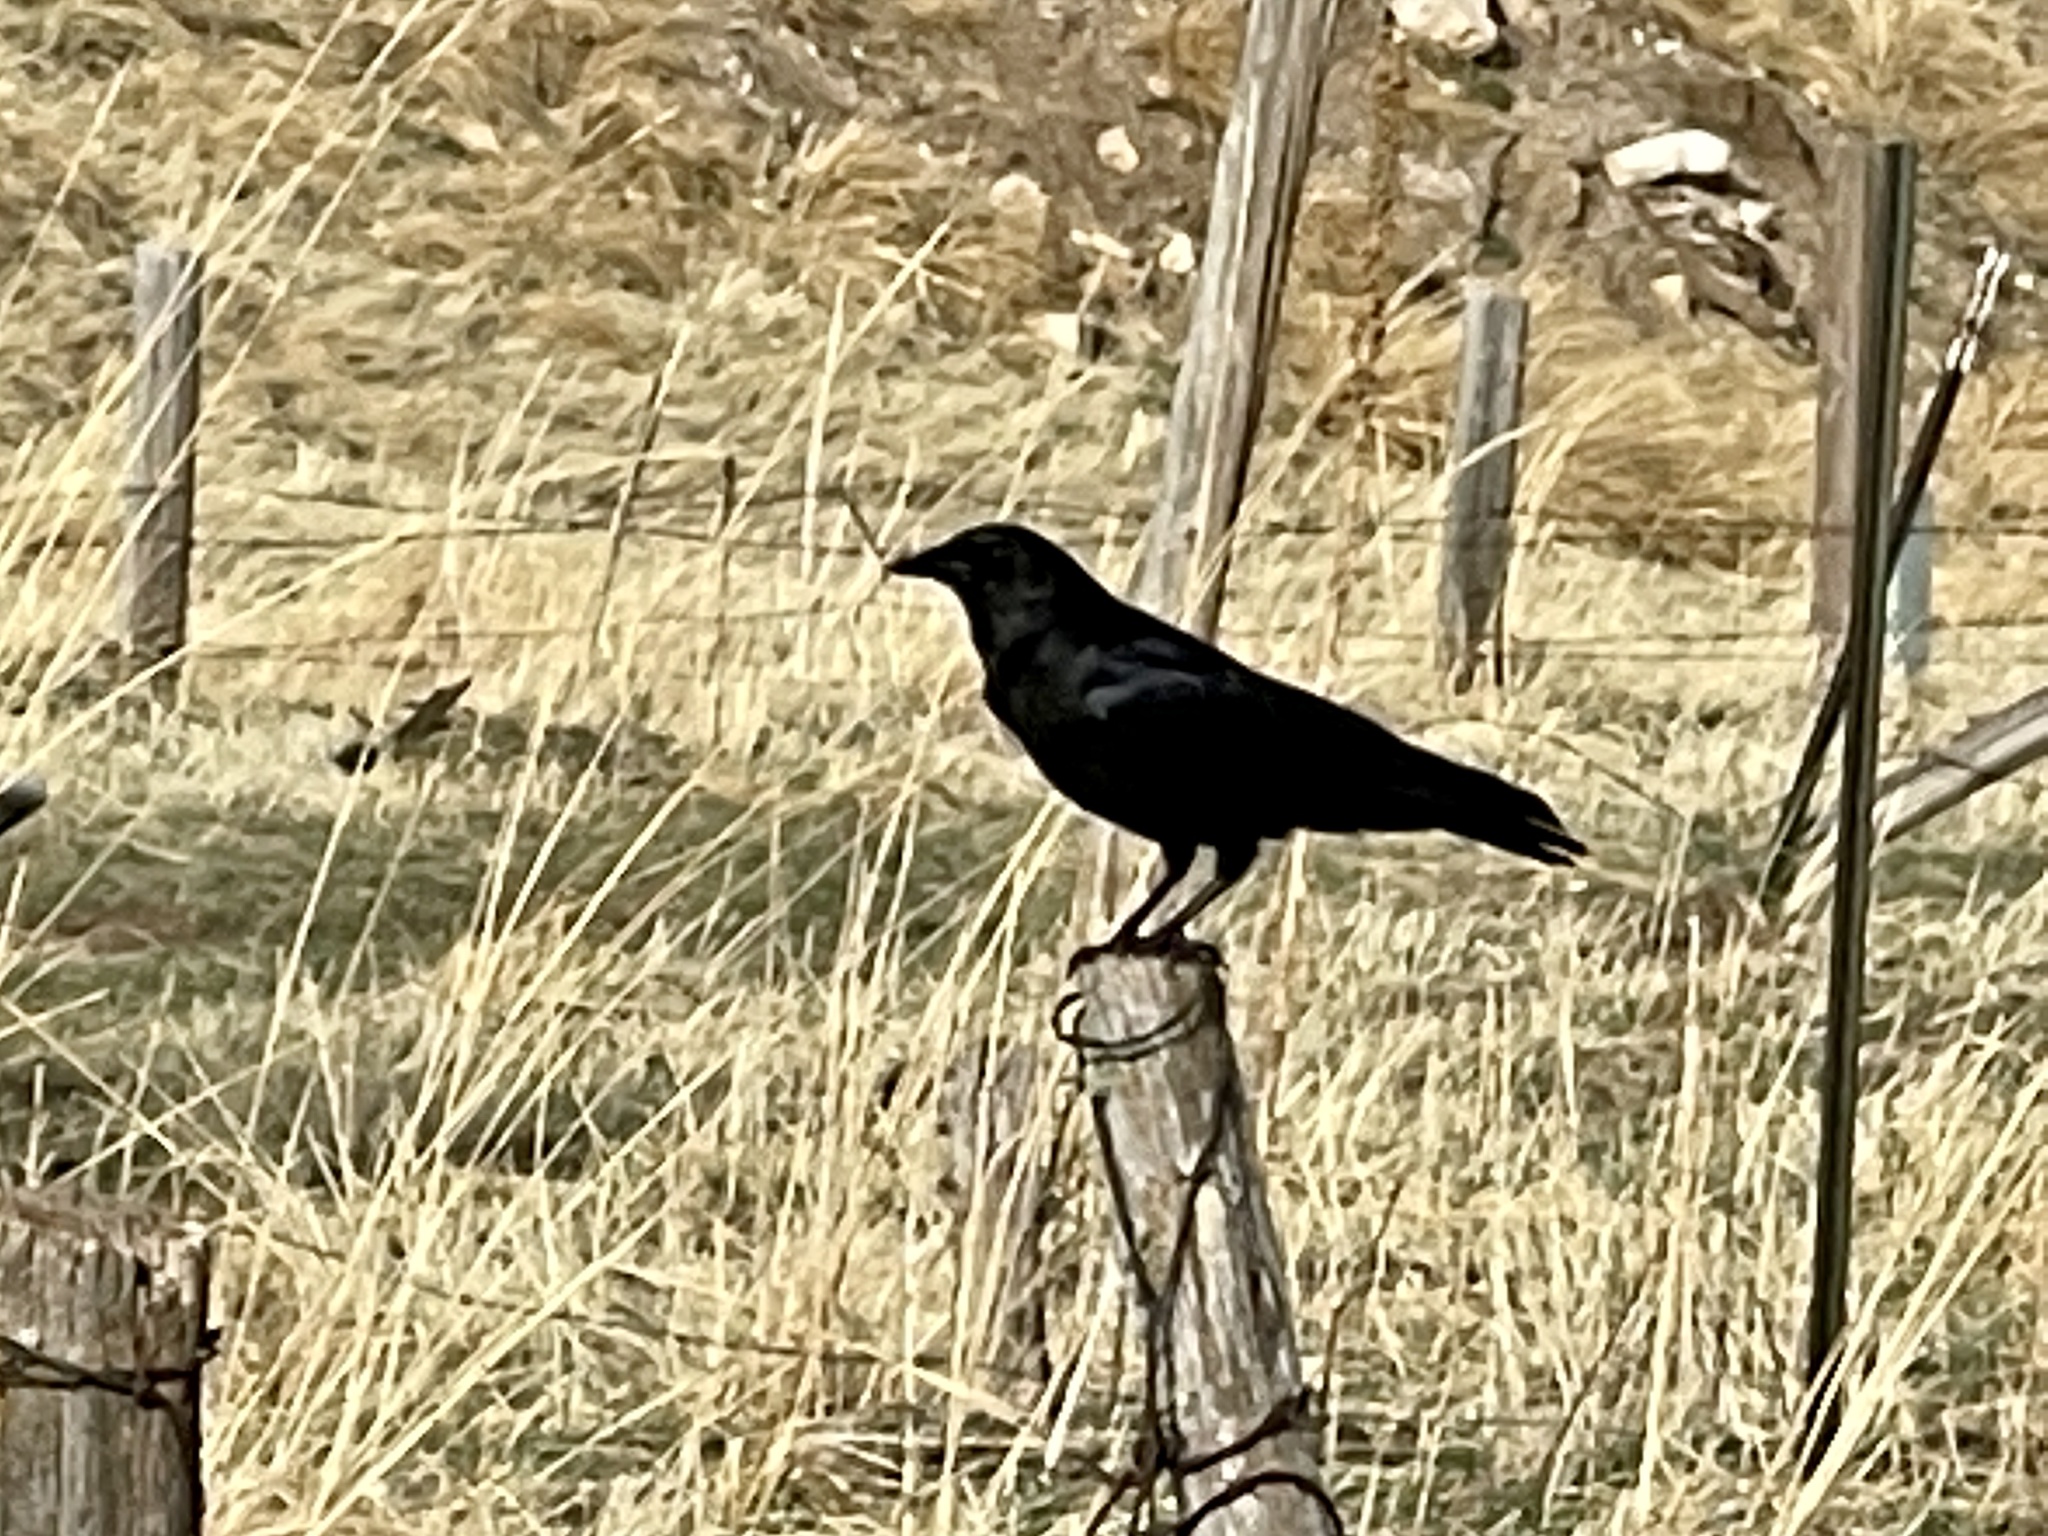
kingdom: Animalia
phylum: Chordata
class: Aves
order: Passeriformes
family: Corvidae
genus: Corvus
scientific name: Corvus brachyrhynchos
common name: American crow
